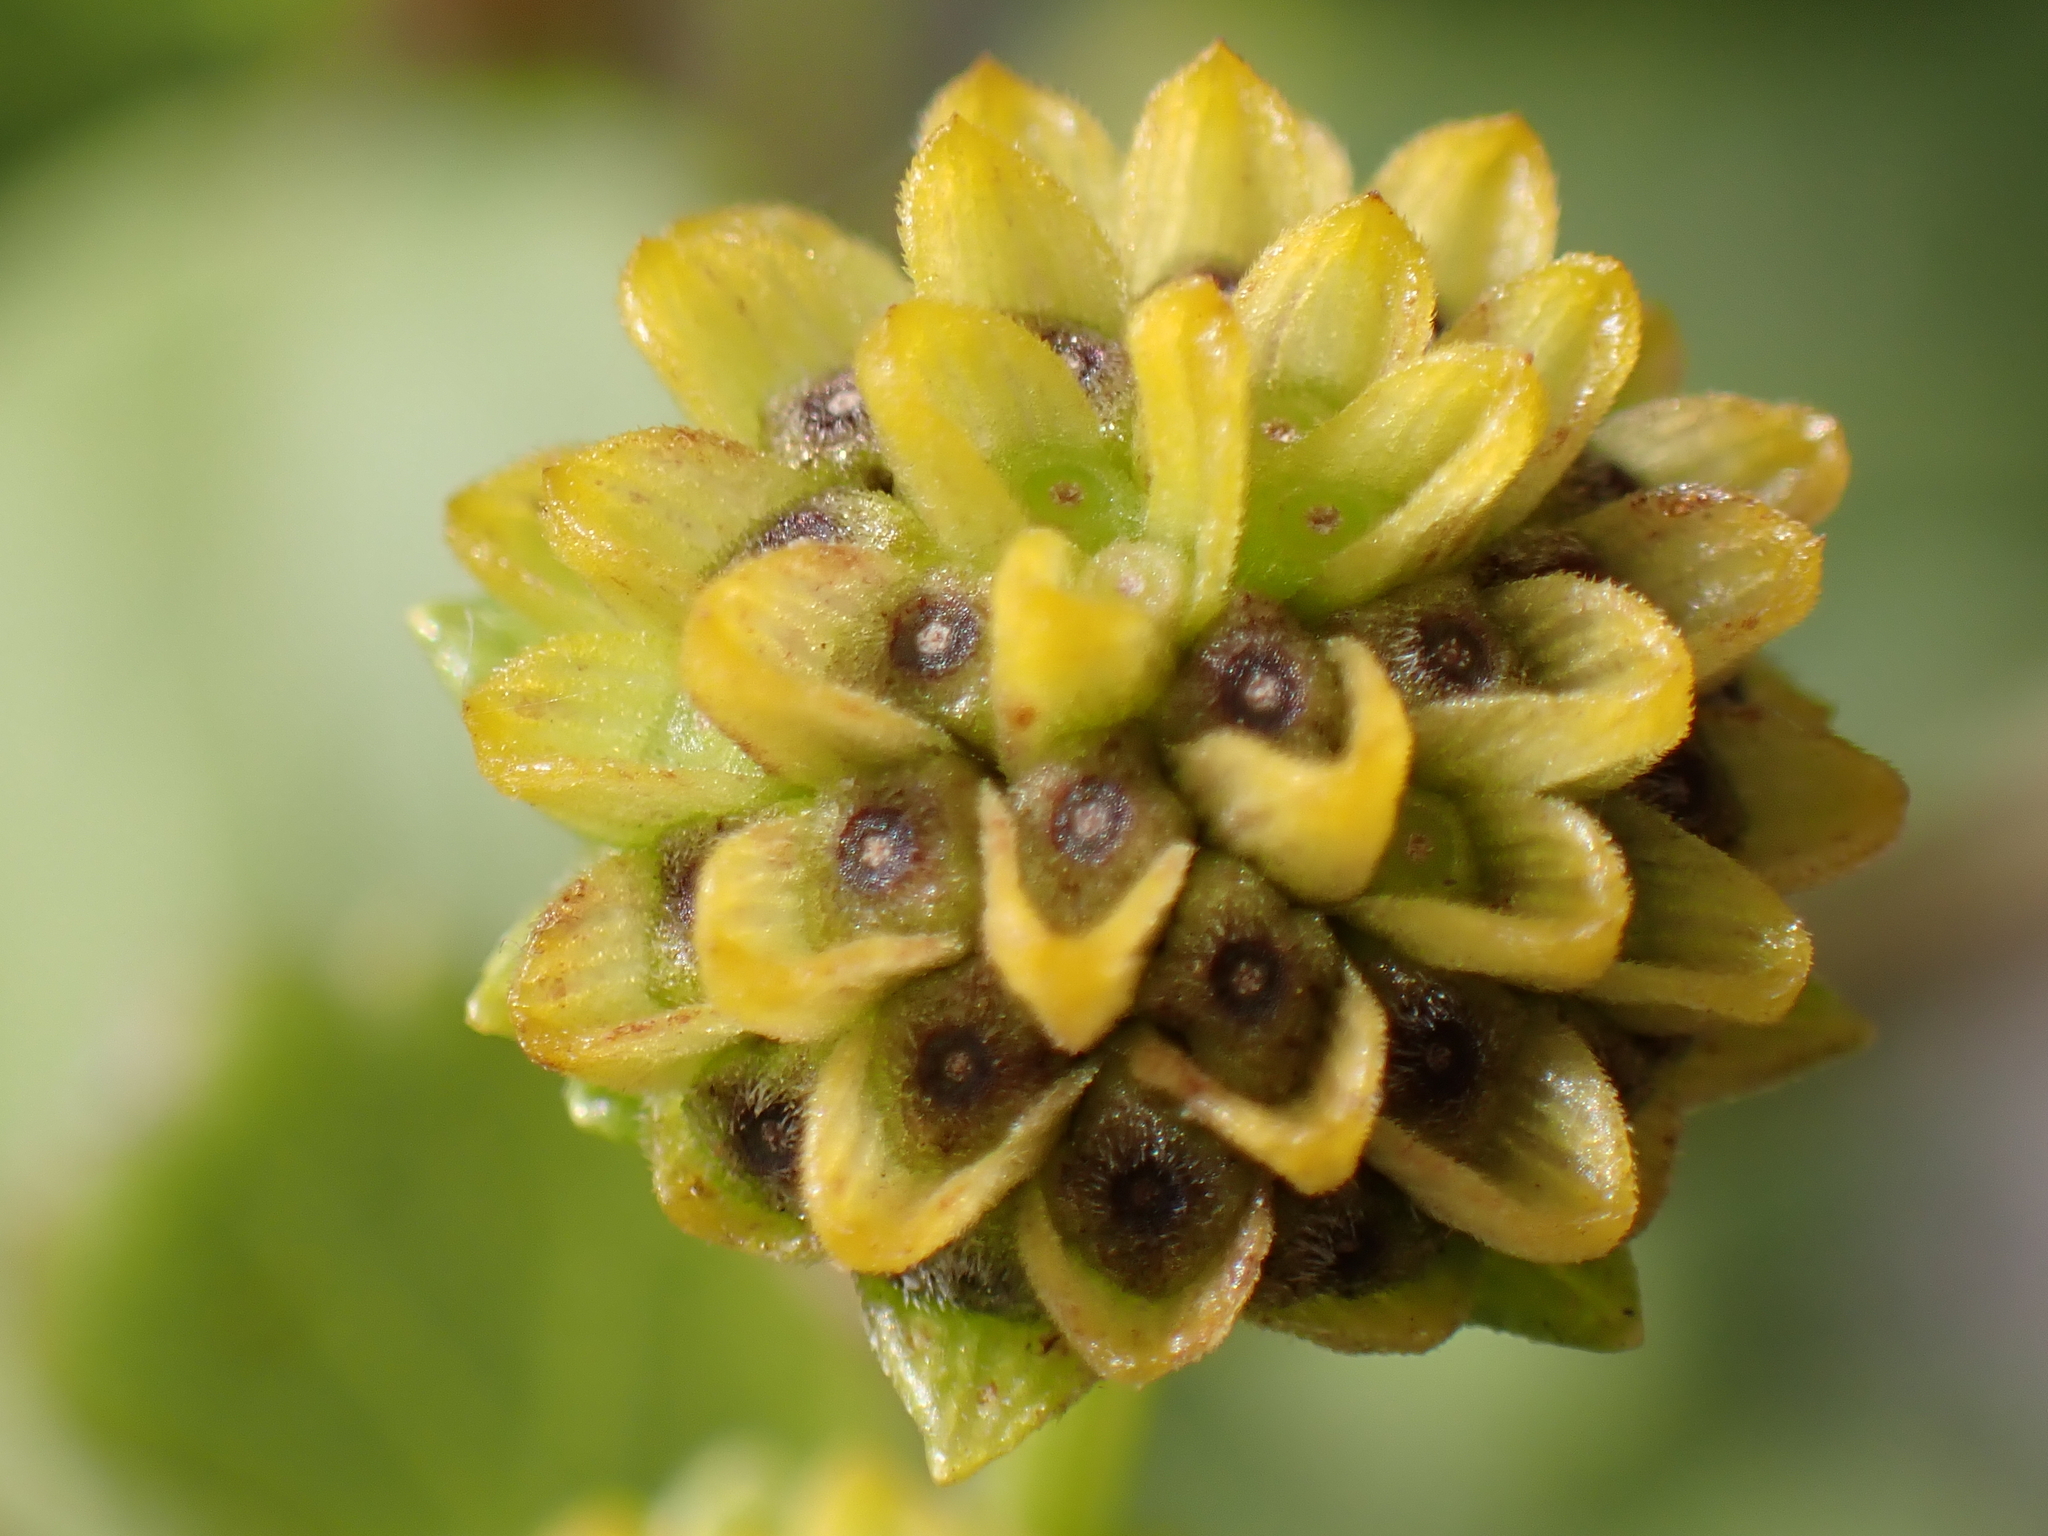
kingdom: Plantae
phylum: Tracheophyta
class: Magnoliopsida
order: Asterales
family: Asteraceae
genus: Wollastonia
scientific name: Wollastonia uniflora
